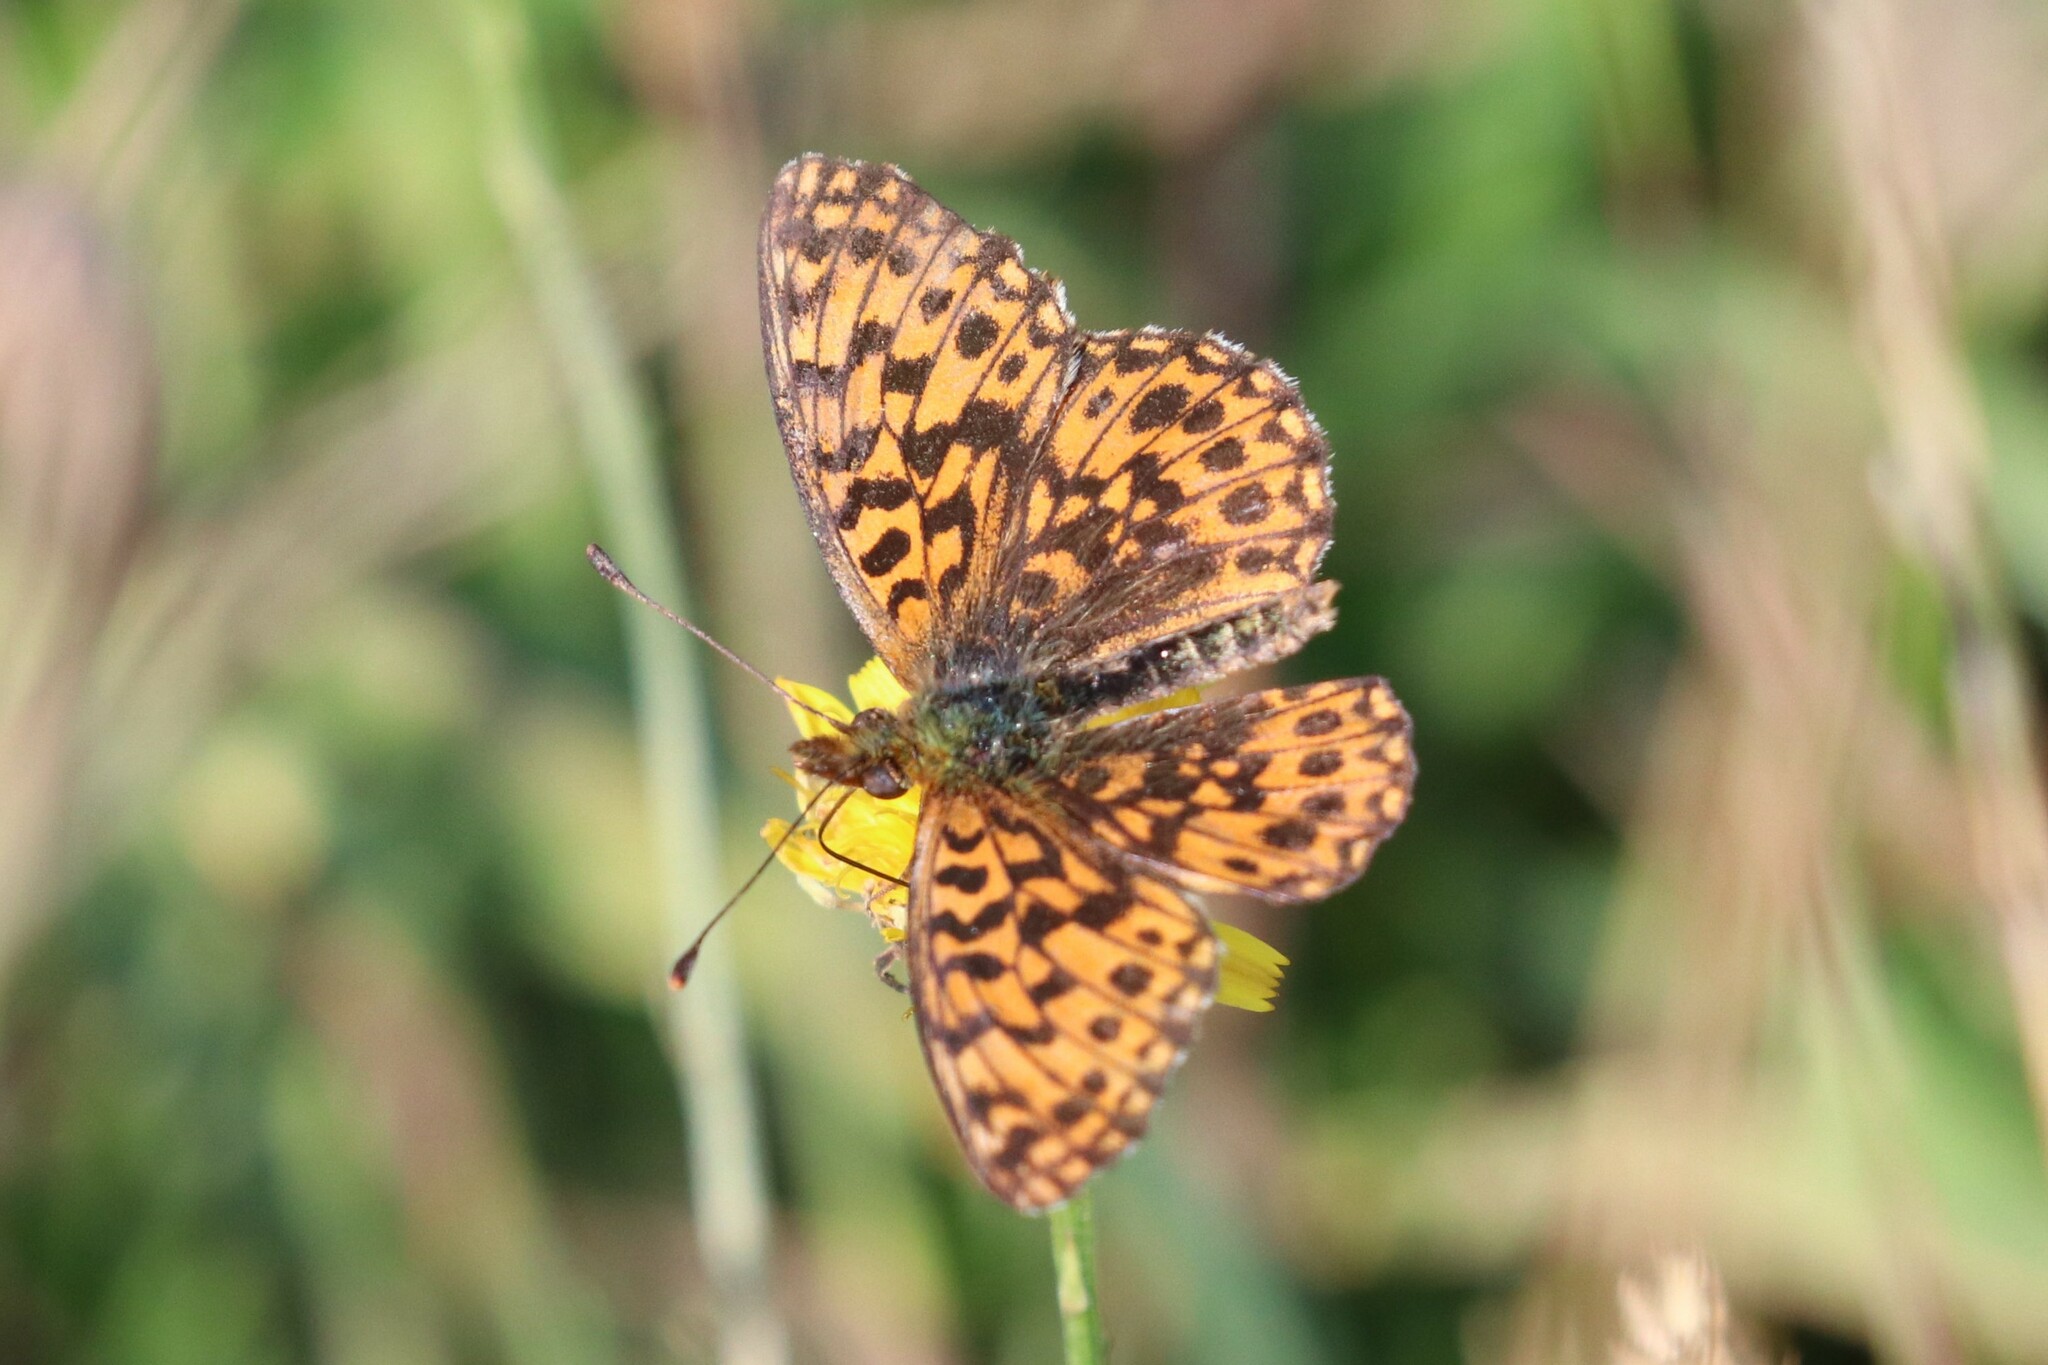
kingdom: Animalia
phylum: Arthropoda
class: Insecta
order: Lepidoptera
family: Nymphalidae
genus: Boloria
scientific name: Boloria dia
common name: Weaver's fritillary
